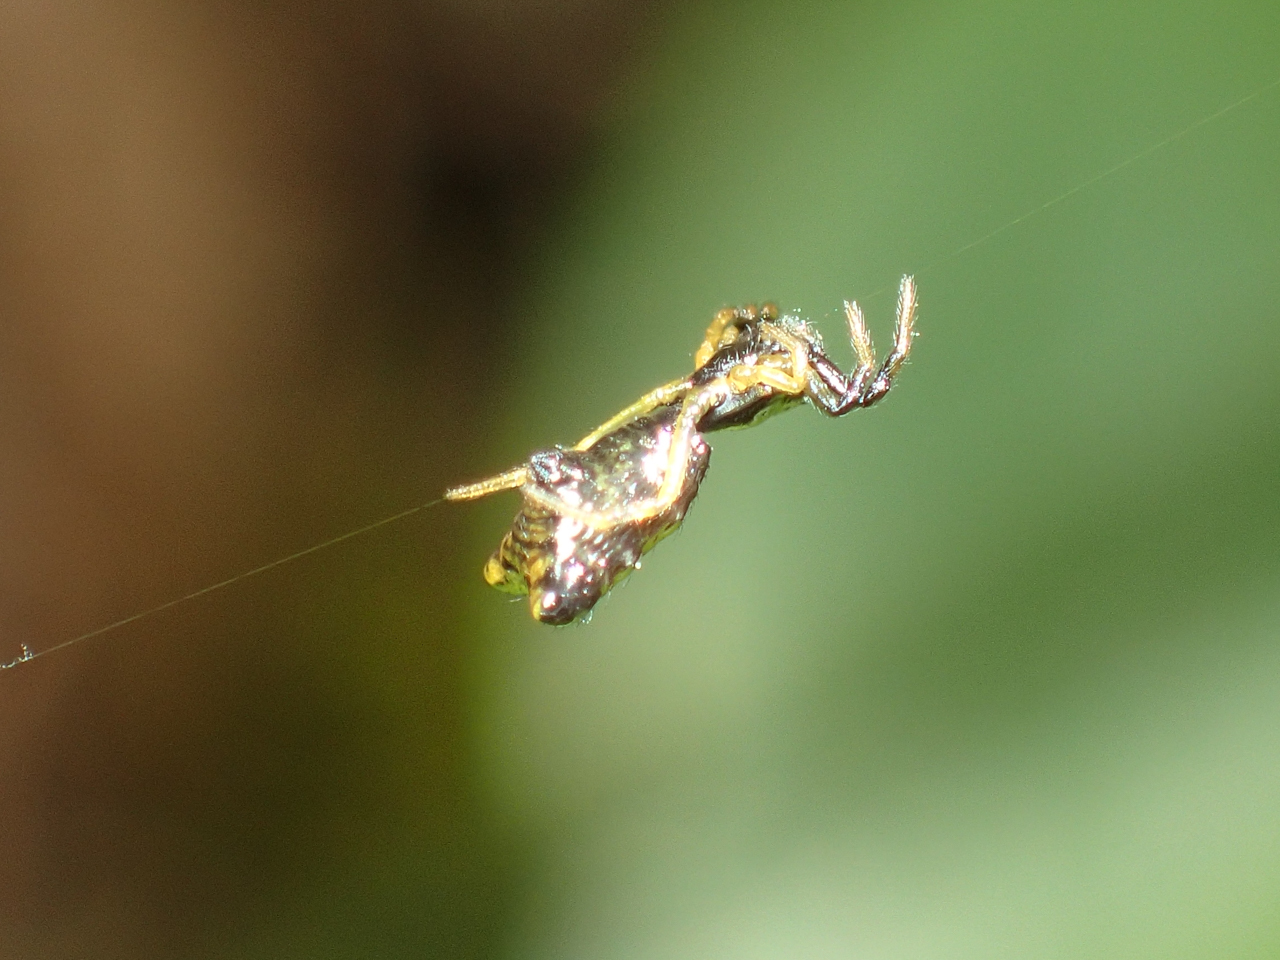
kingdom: Animalia
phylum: Arthropoda
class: Arachnida
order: Araneae
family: Araneidae
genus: Micrathena
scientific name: Micrathena sagittata
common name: Orb weavers
